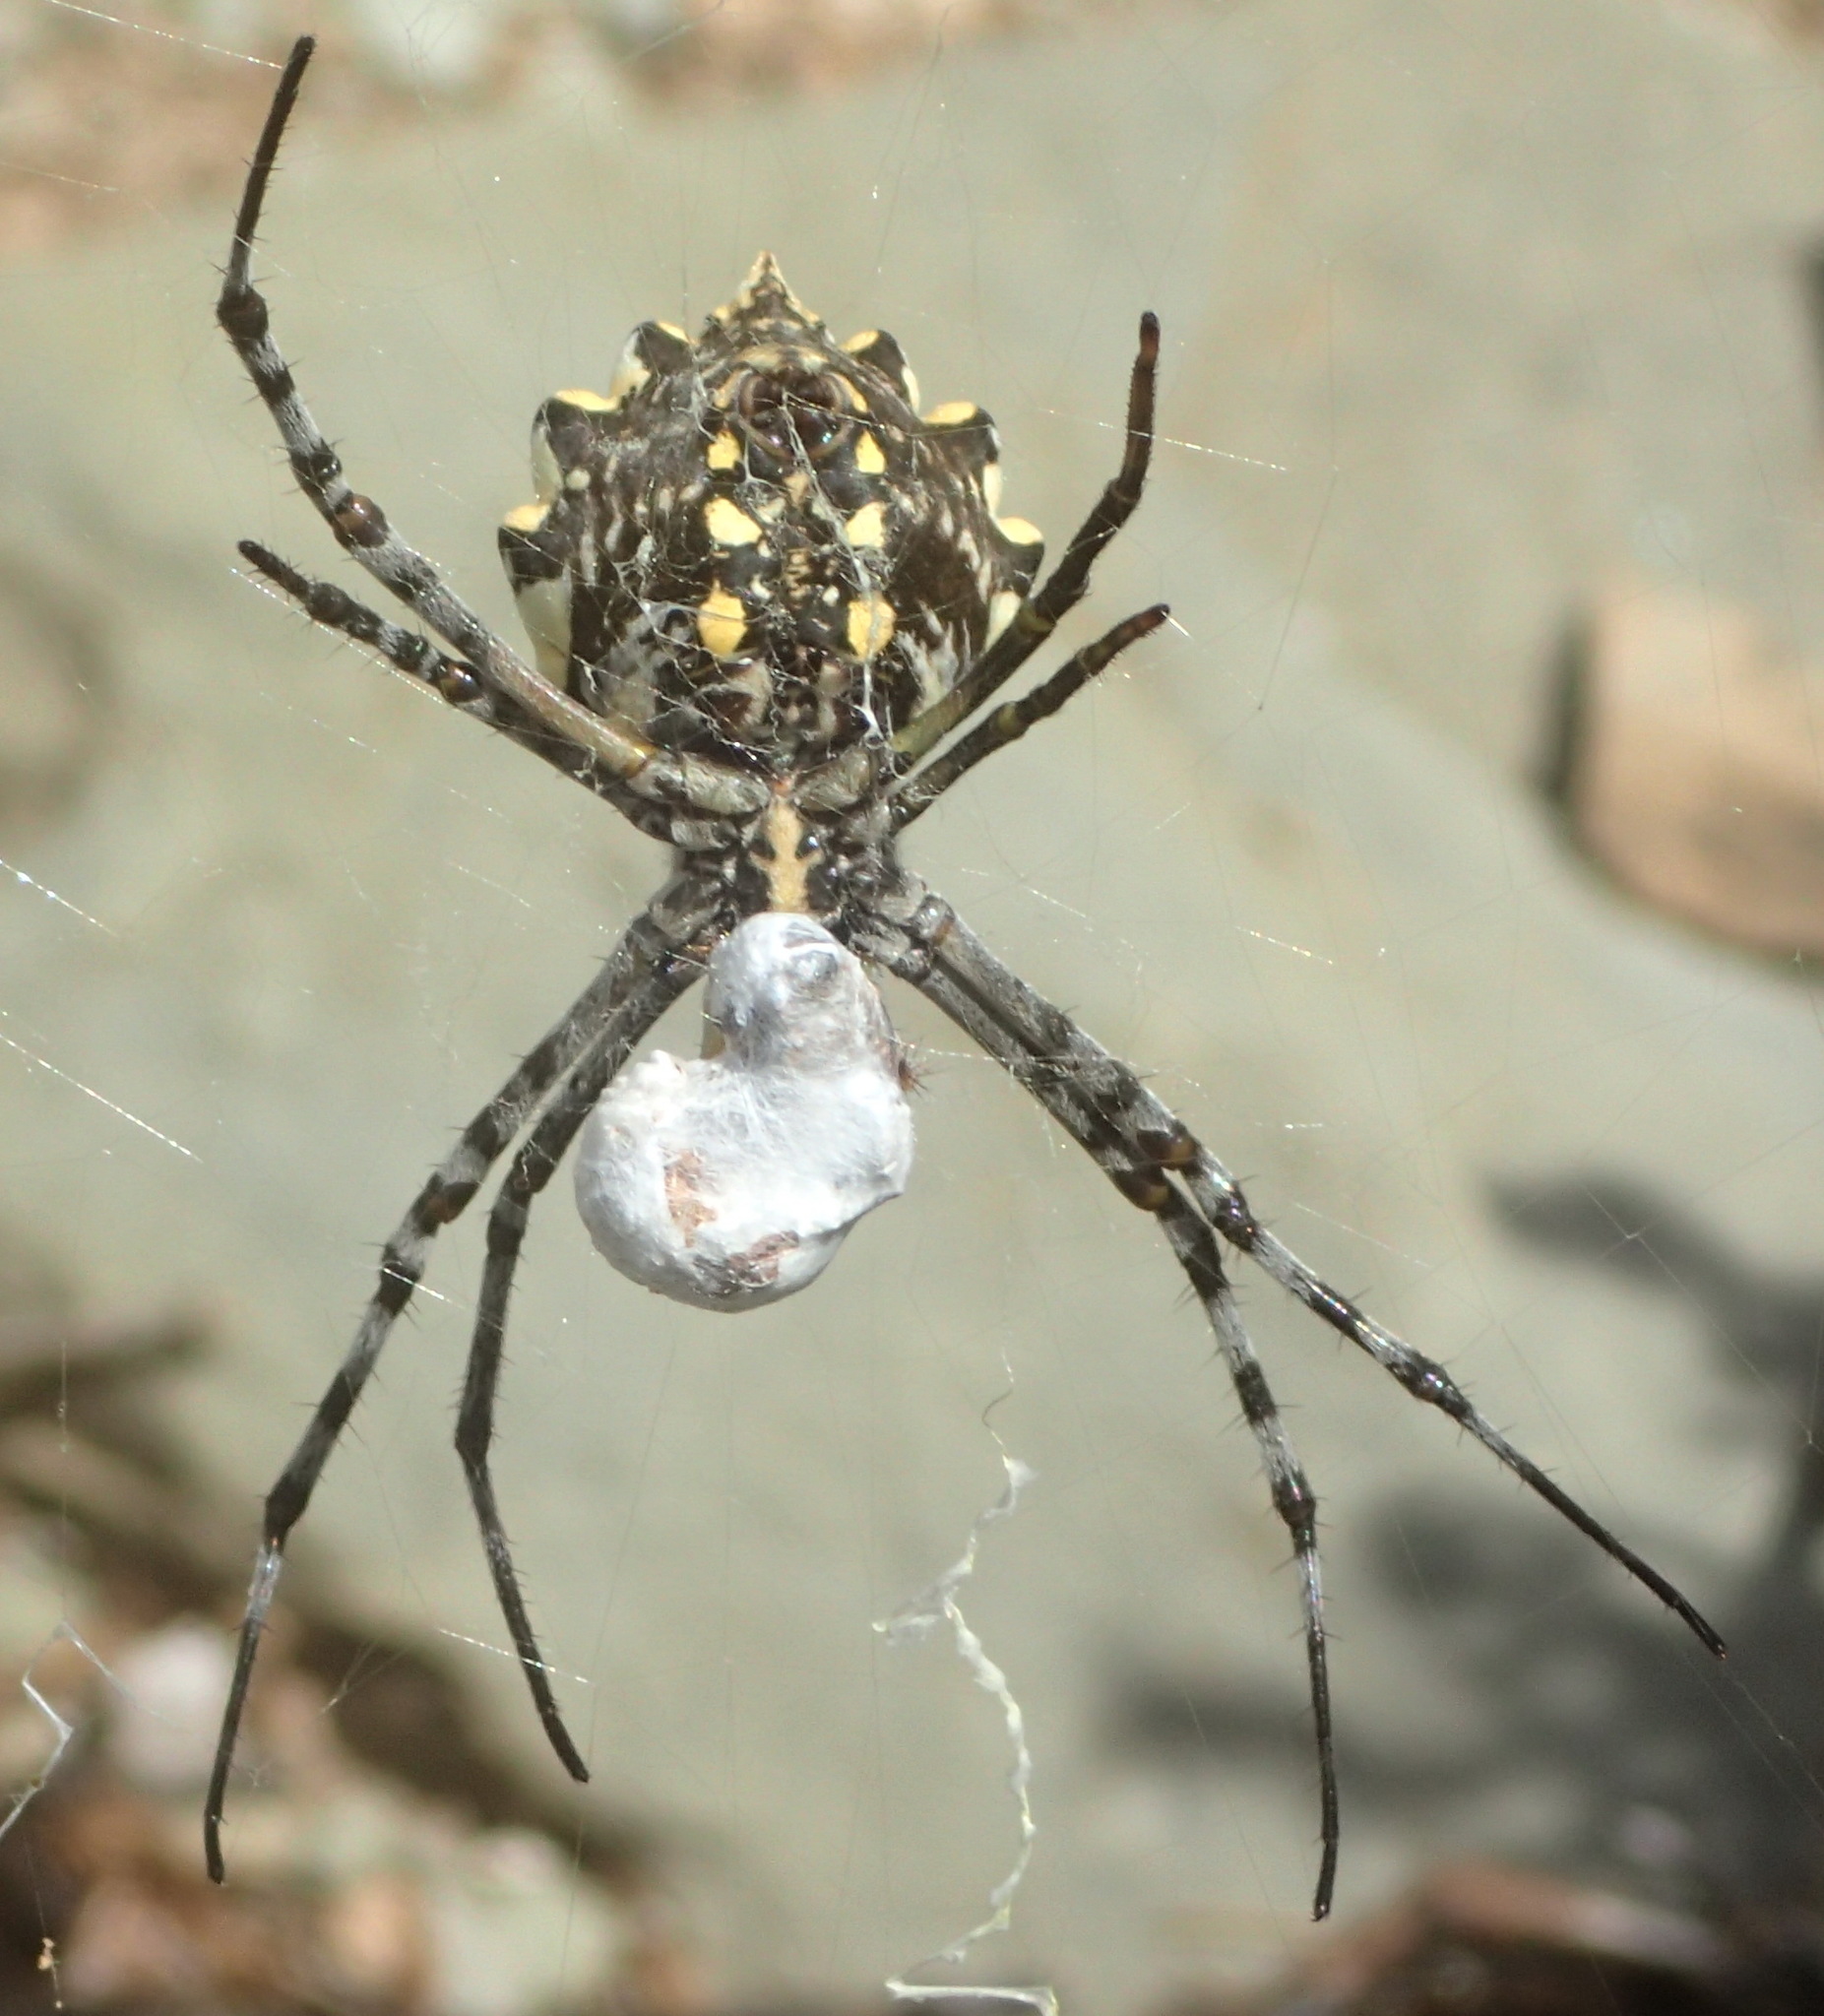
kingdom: Animalia
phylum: Arthropoda
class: Arachnida
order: Araneae
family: Araneidae
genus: Argiope
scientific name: Argiope australis
